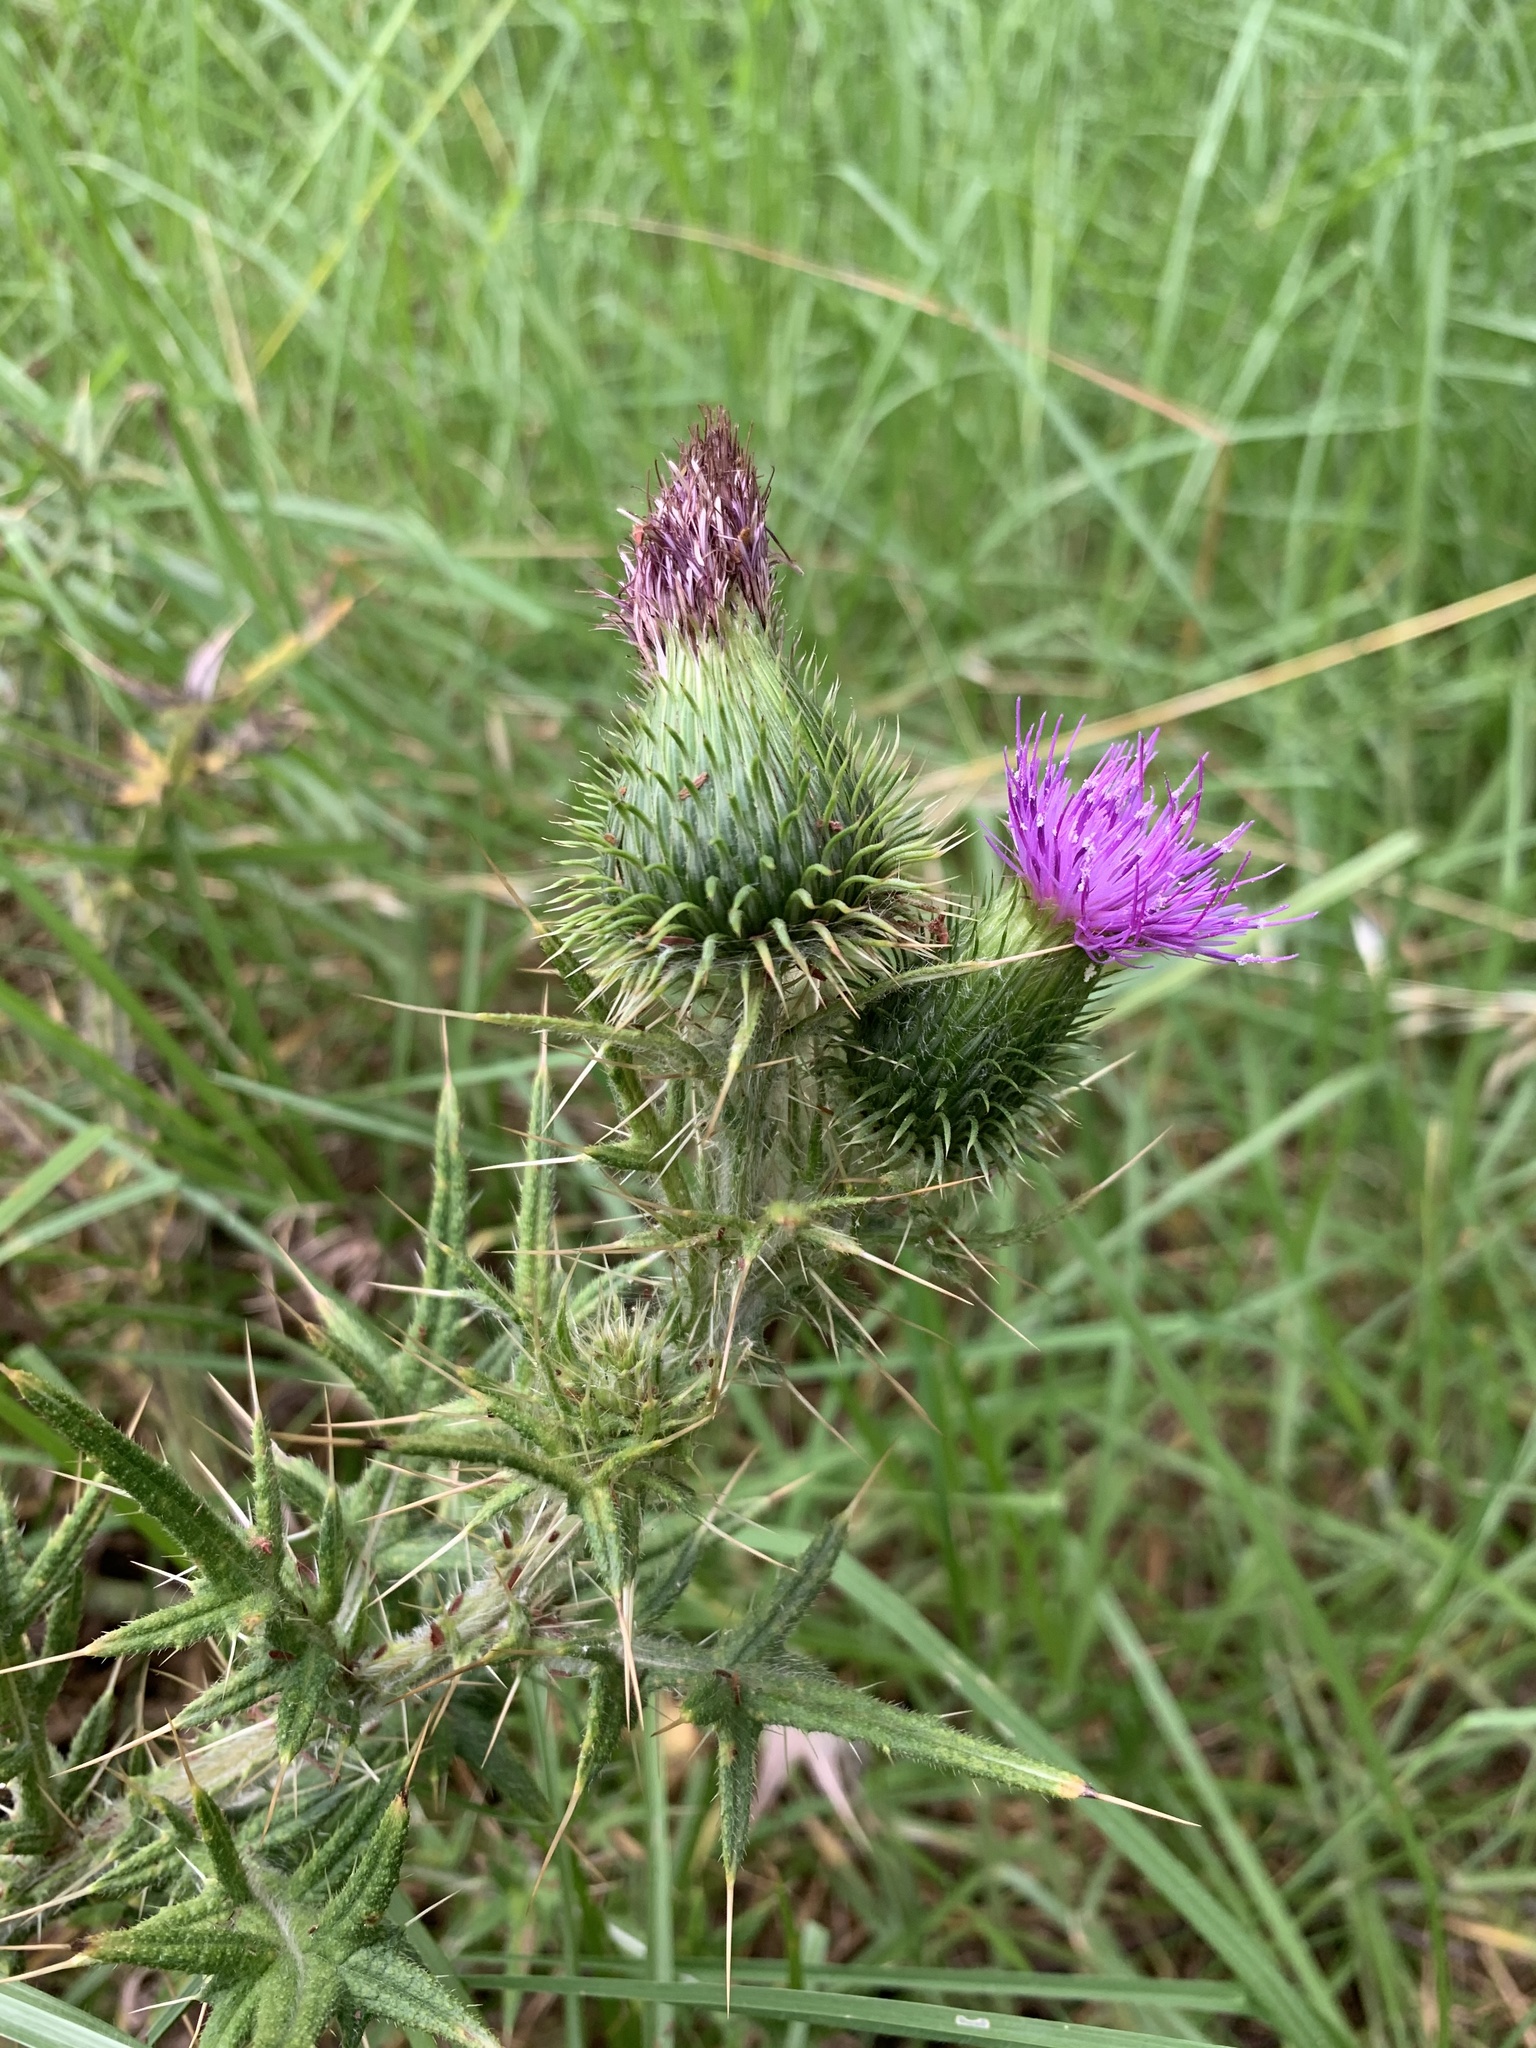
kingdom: Plantae
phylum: Tracheophyta
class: Magnoliopsida
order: Asterales
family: Asteraceae
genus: Cirsium
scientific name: Cirsium vulgare
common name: Bull thistle
